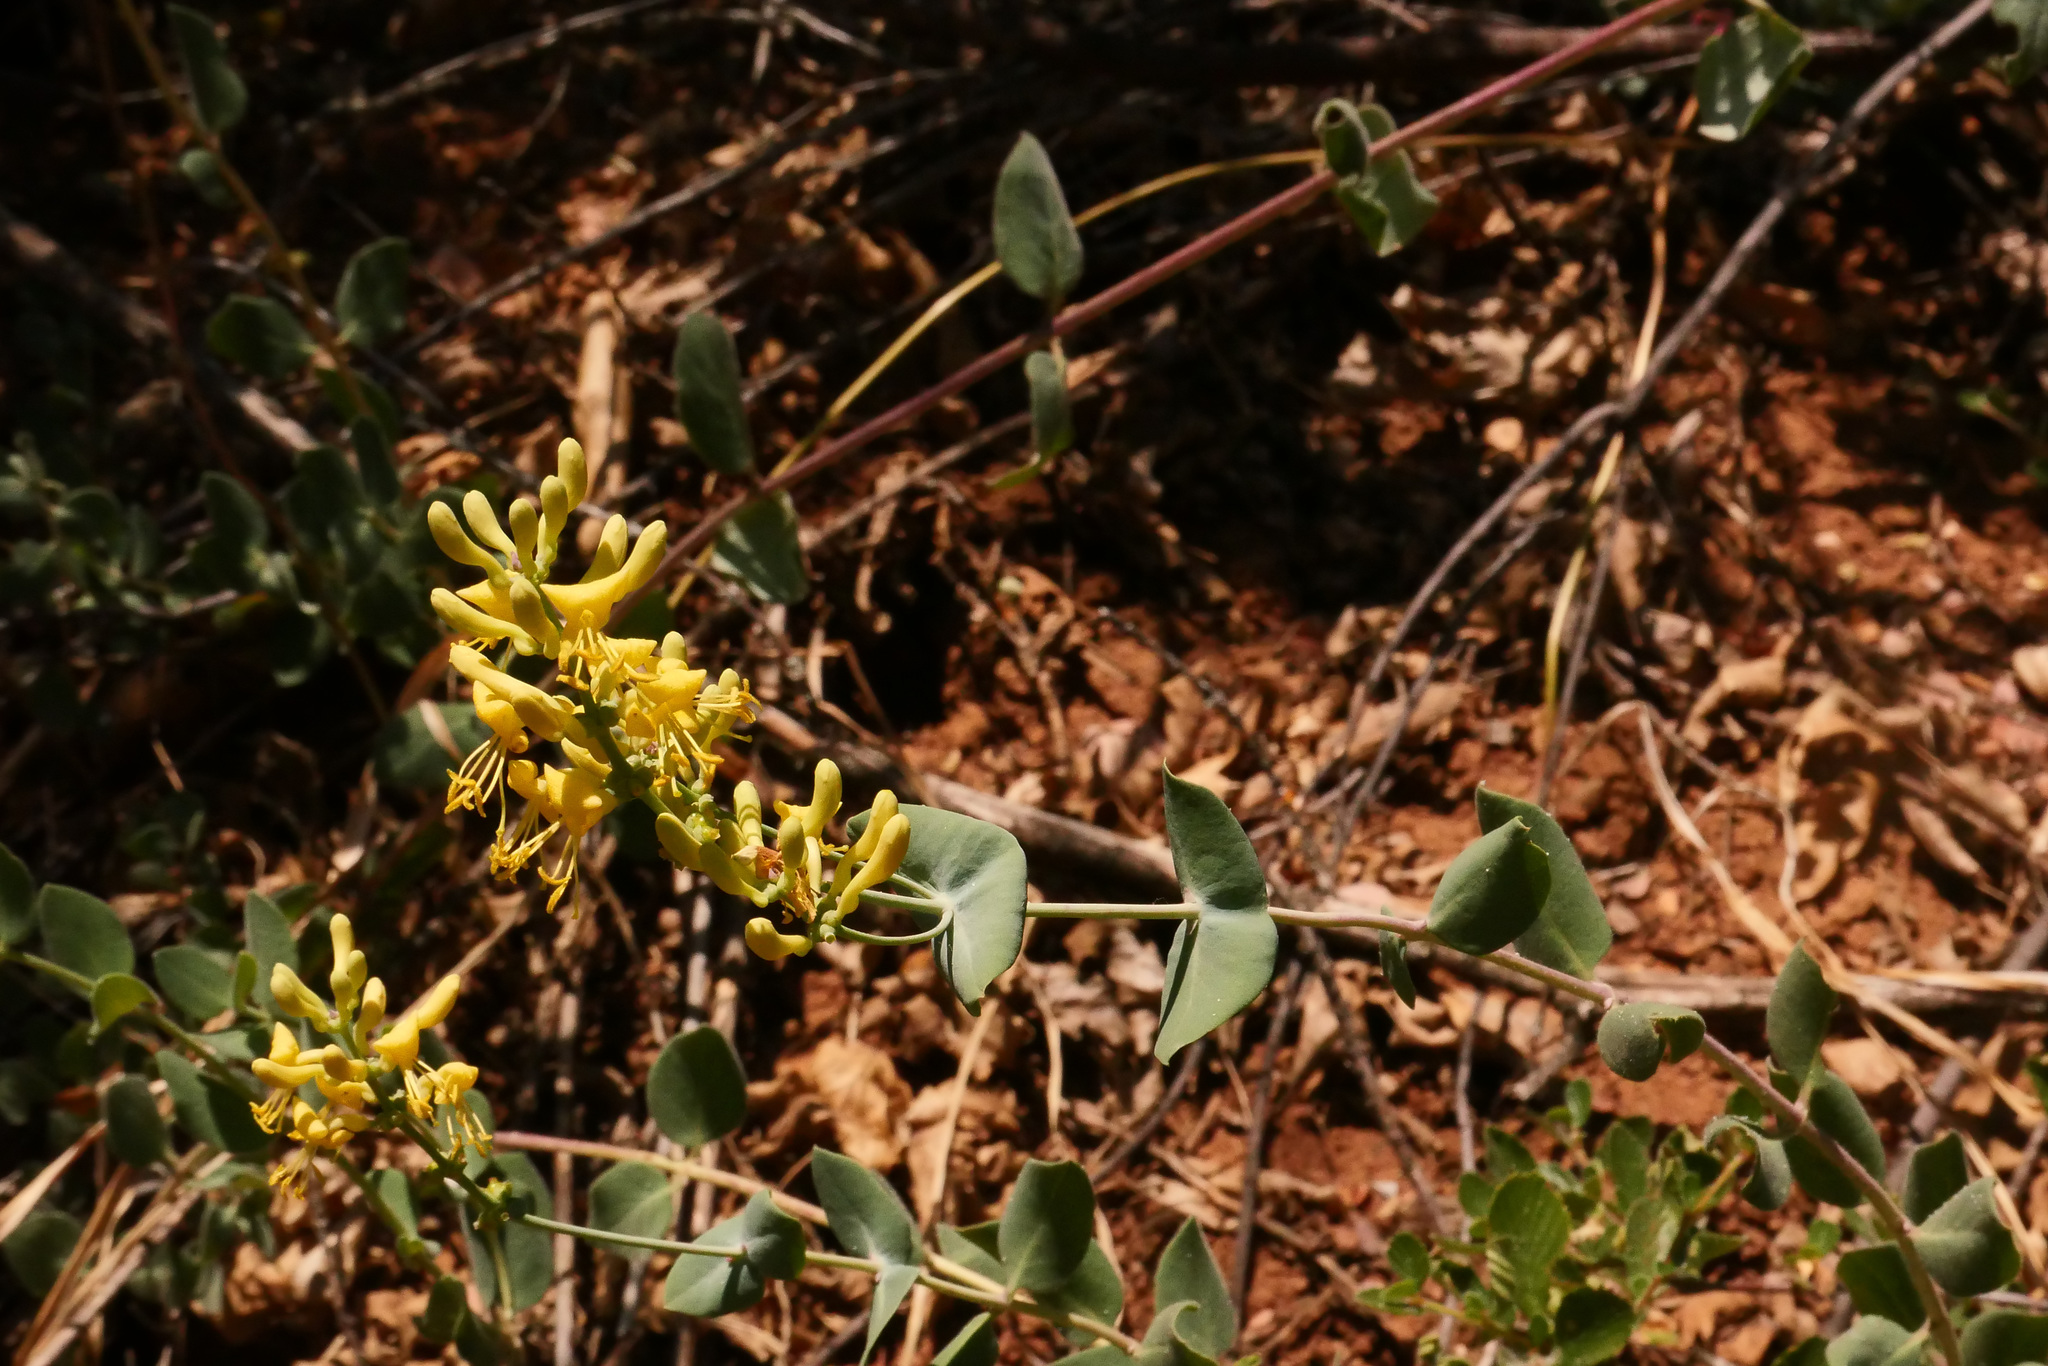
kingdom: Plantae
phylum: Tracheophyta
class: Magnoliopsida
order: Dipsacales
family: Caprifoliaceae
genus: Lonicera
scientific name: Lonicera interrupta
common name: Chaparral honeysuckle
